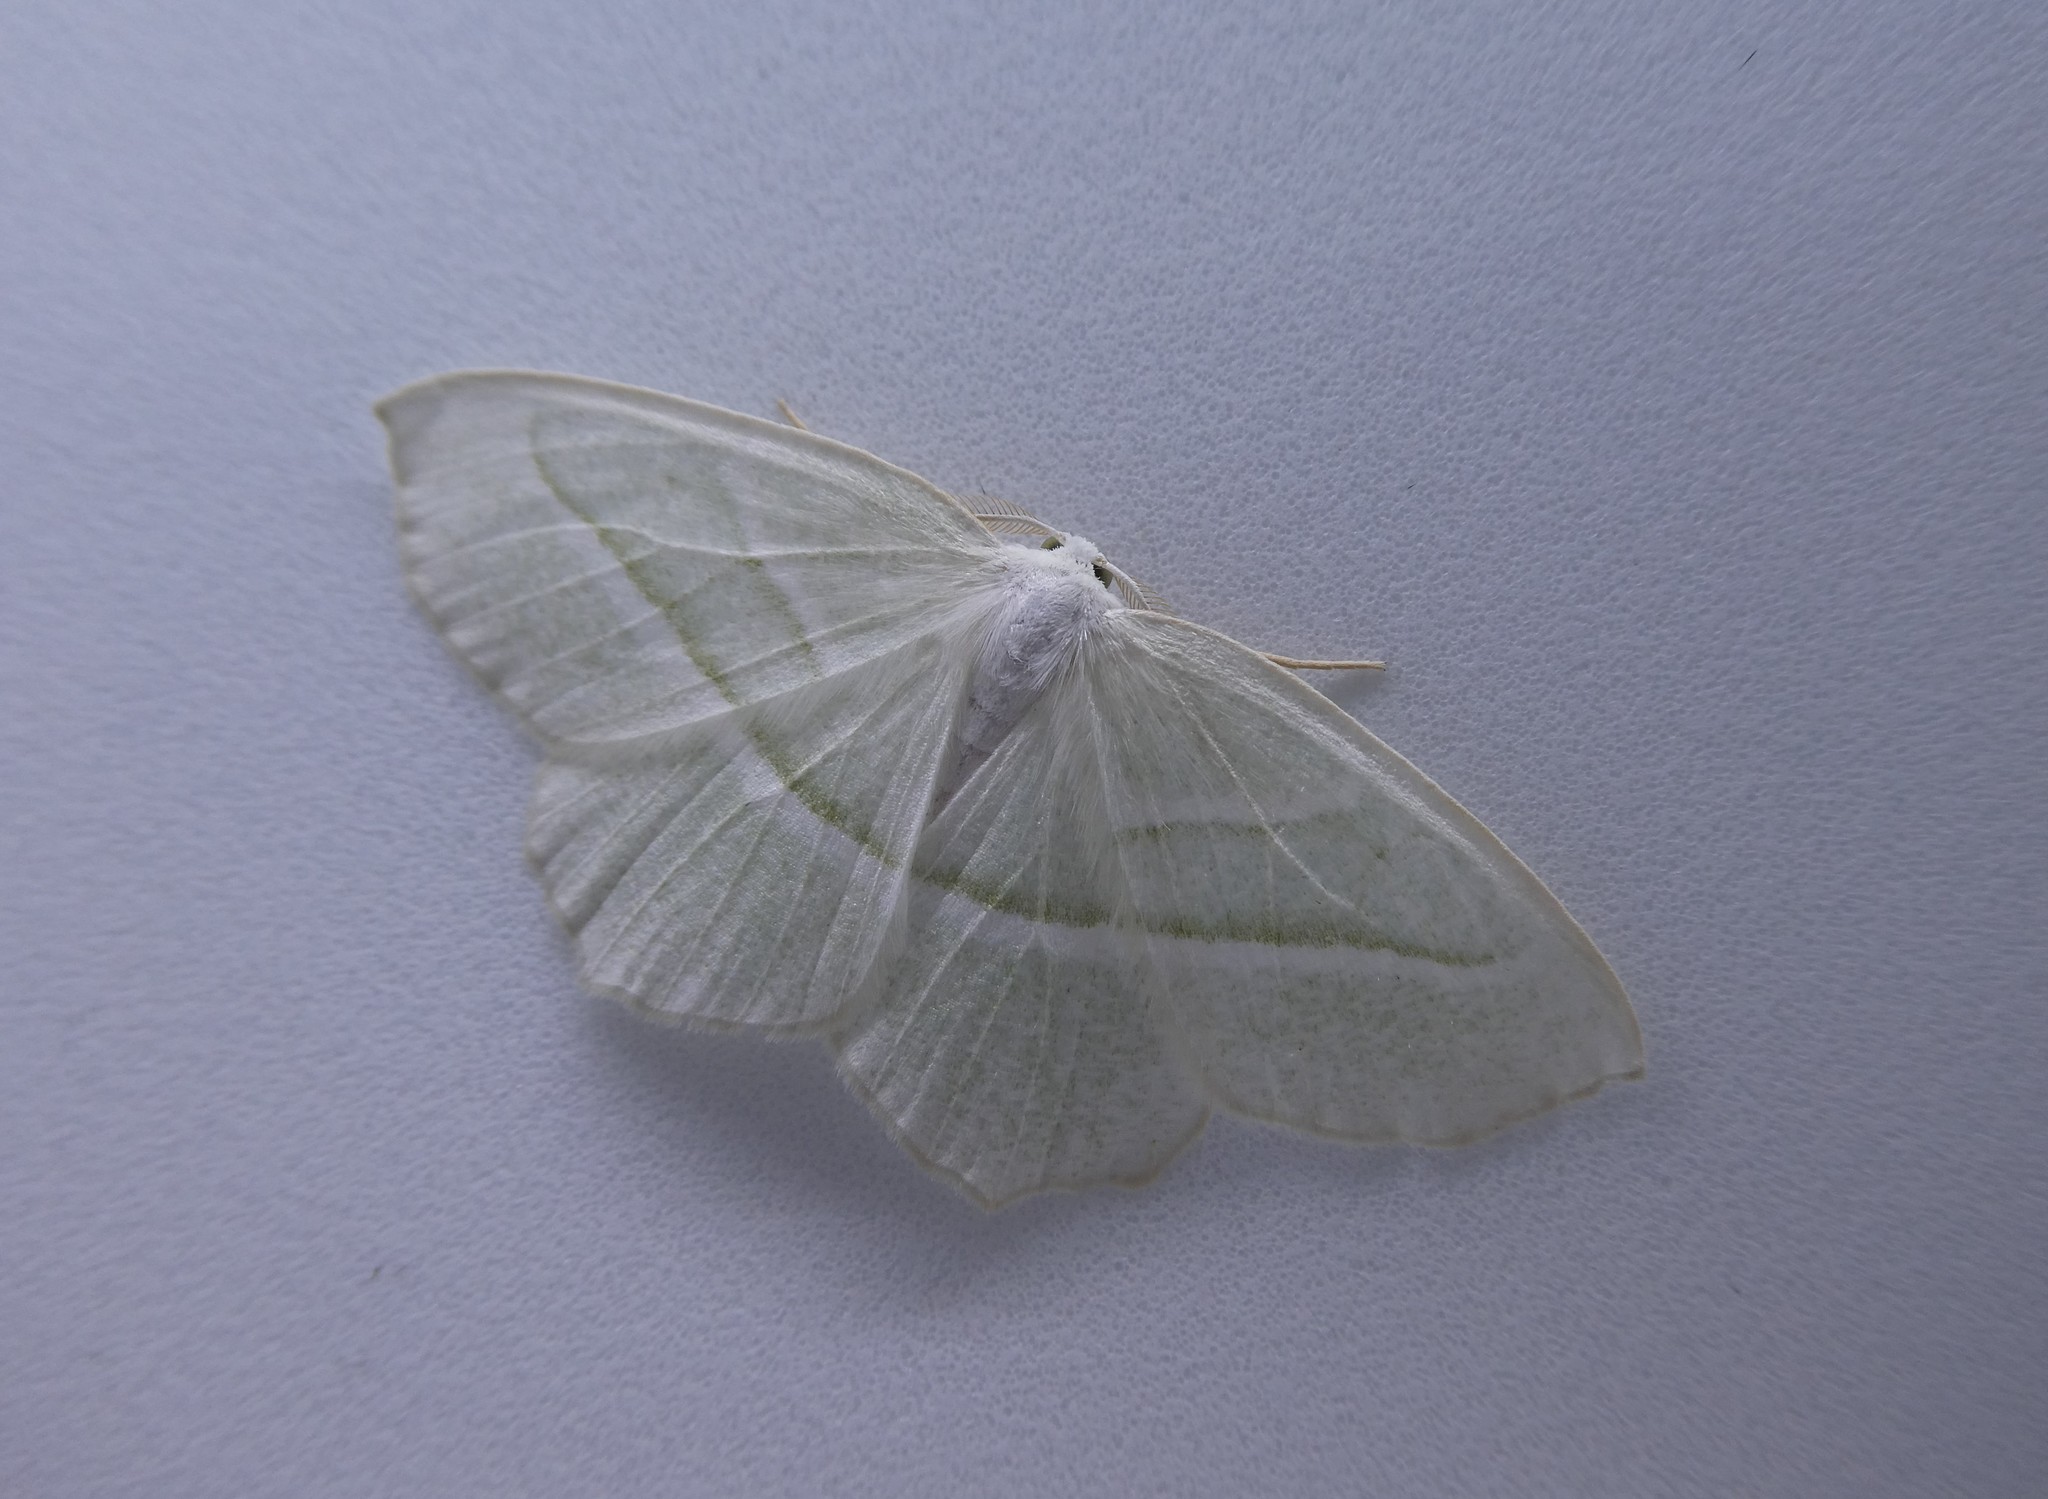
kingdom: Animalia
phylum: Arthropoda
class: Insecta
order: Lepidoptera
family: Geometridae
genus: Campaea
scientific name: Campaea perlata
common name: Fringed looper
